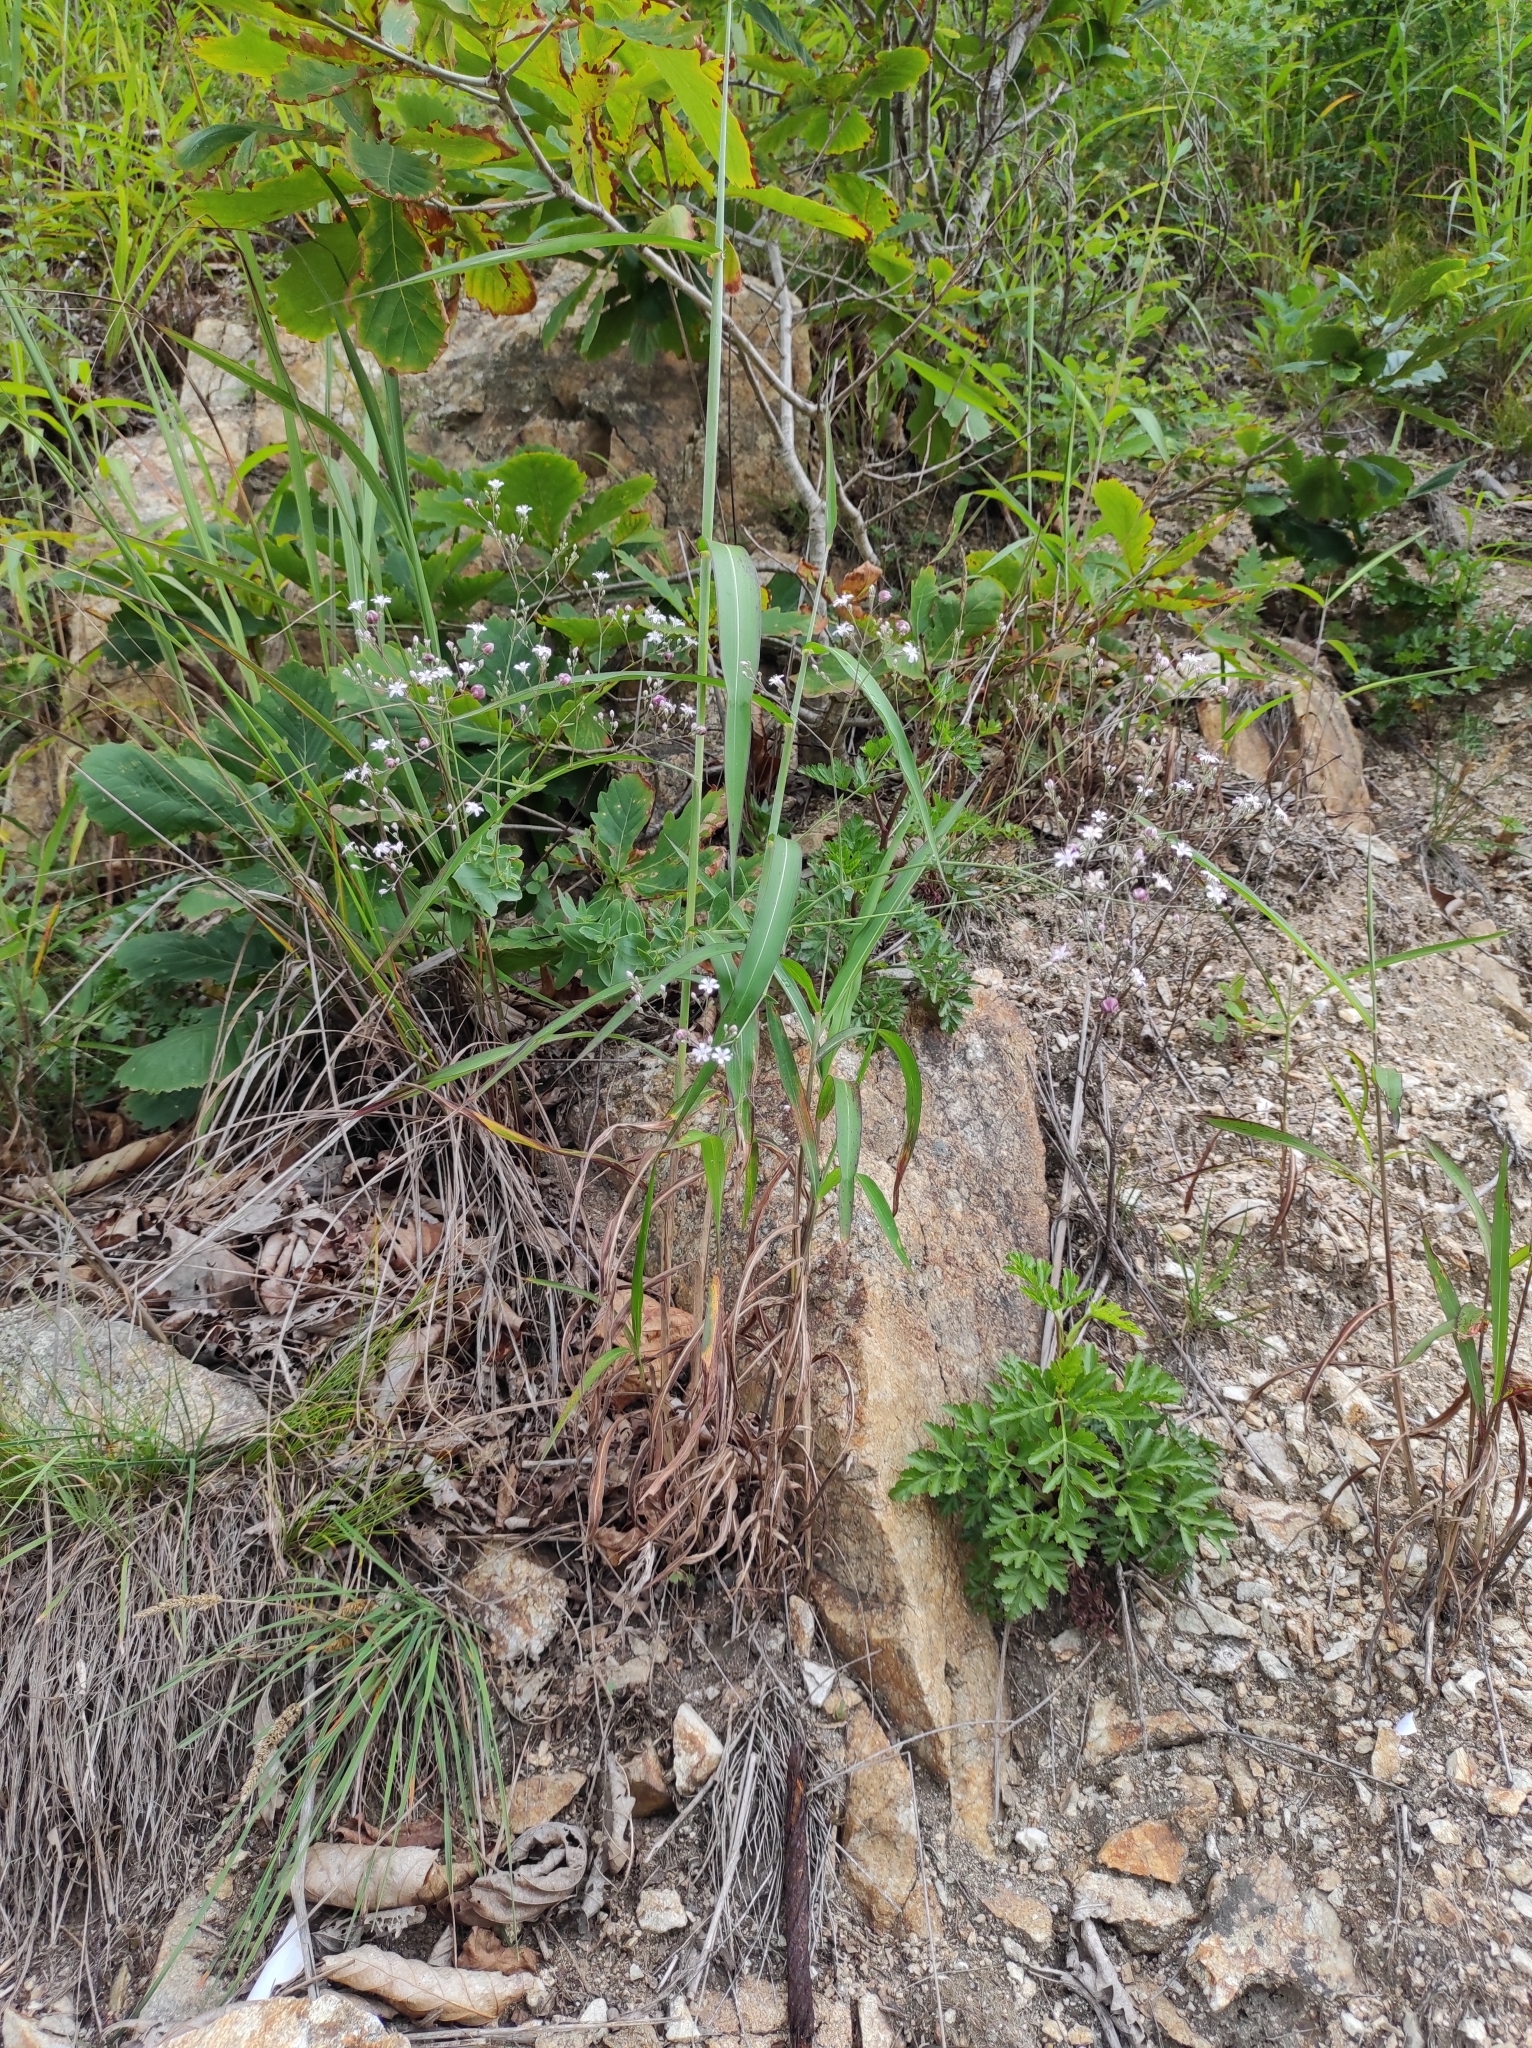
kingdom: Plantae
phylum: Tracheophyta
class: Magnoliopsida
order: Caryophyllales
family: Caryophyllaceae
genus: Gypsophila
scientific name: Gypsophila pacifica
